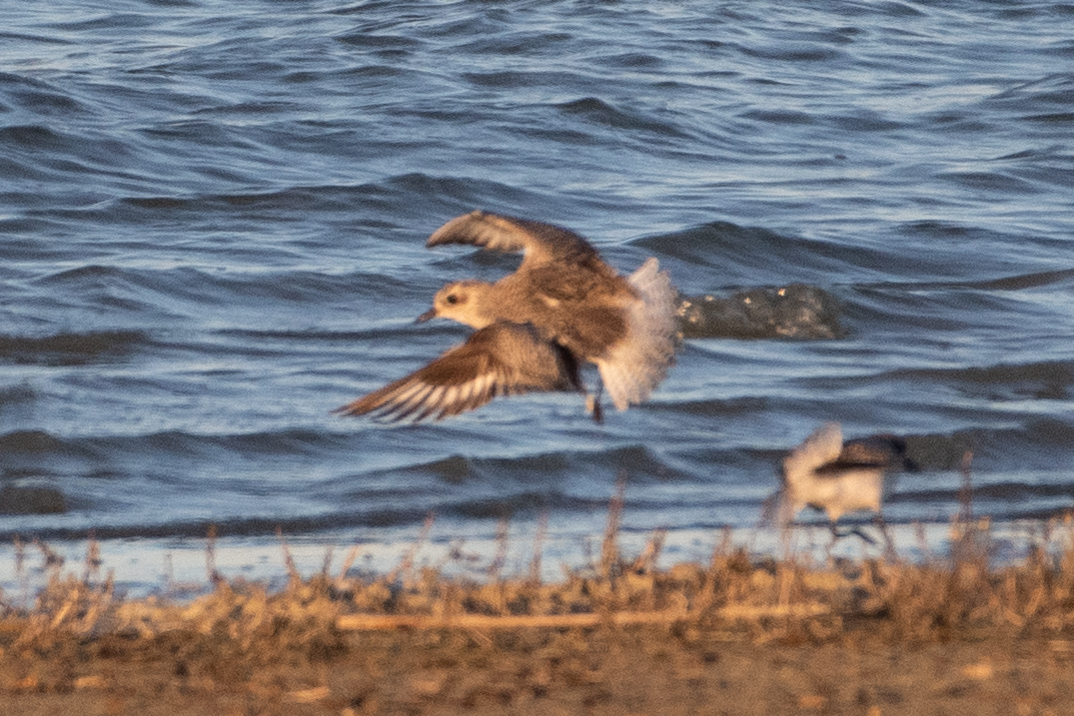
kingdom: Animalia
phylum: Chordata
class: Aves
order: Charadriiformes
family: Charadriidae
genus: Pluvialis
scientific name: Pluvialis squatarola
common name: Grey plover
